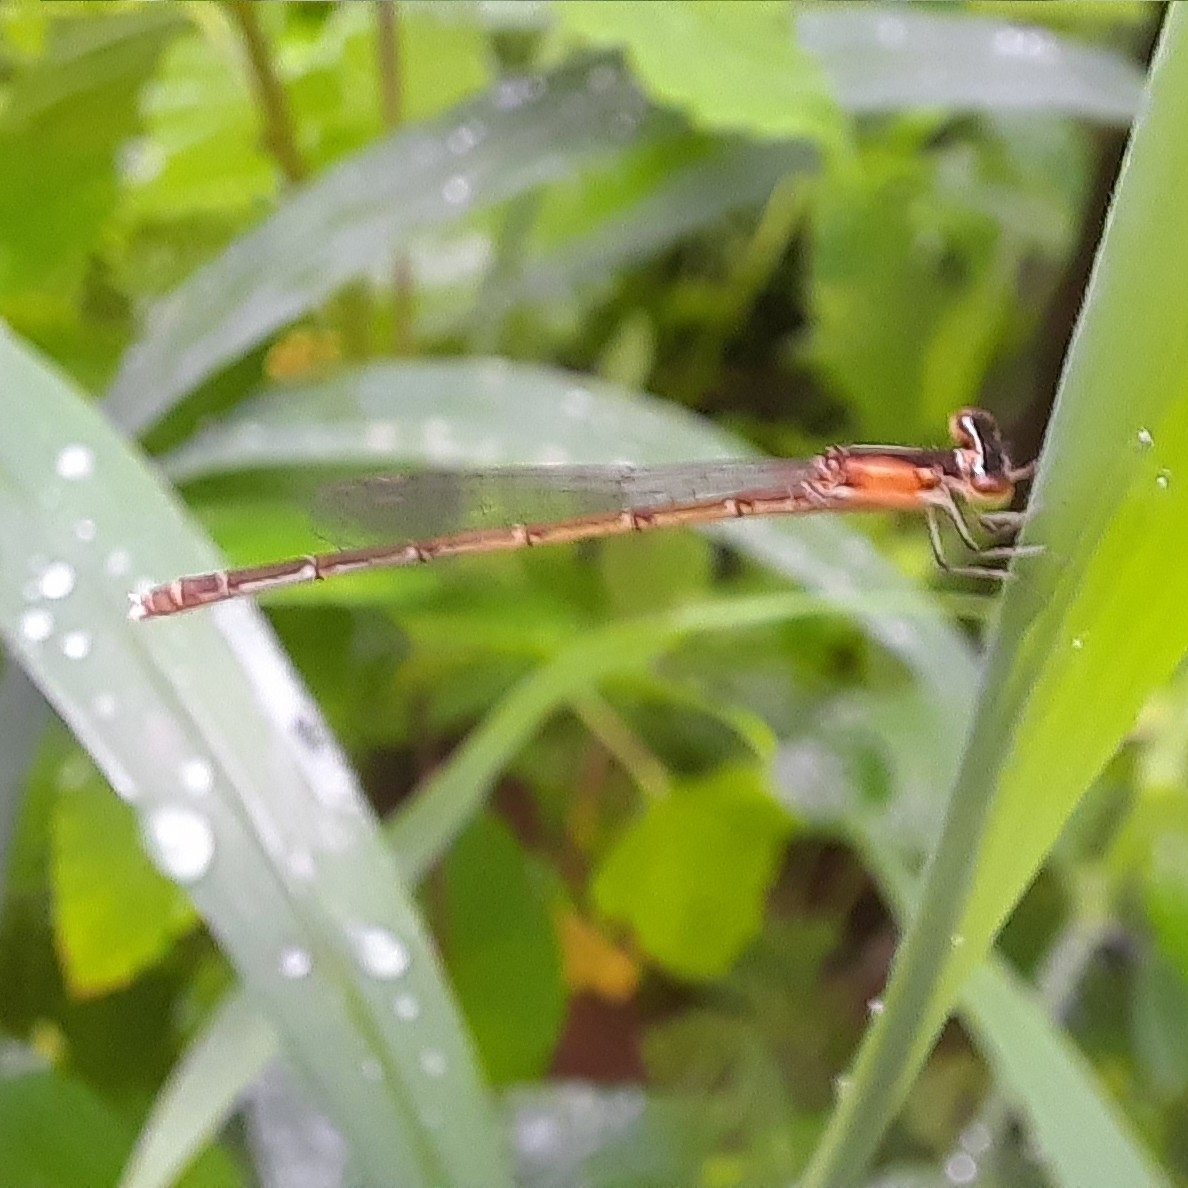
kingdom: Animalia
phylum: Arthropoda
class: Insecta
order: Odonata
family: Coenagrionidae
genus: Agriocnemis
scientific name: Agriocnemis pieris
